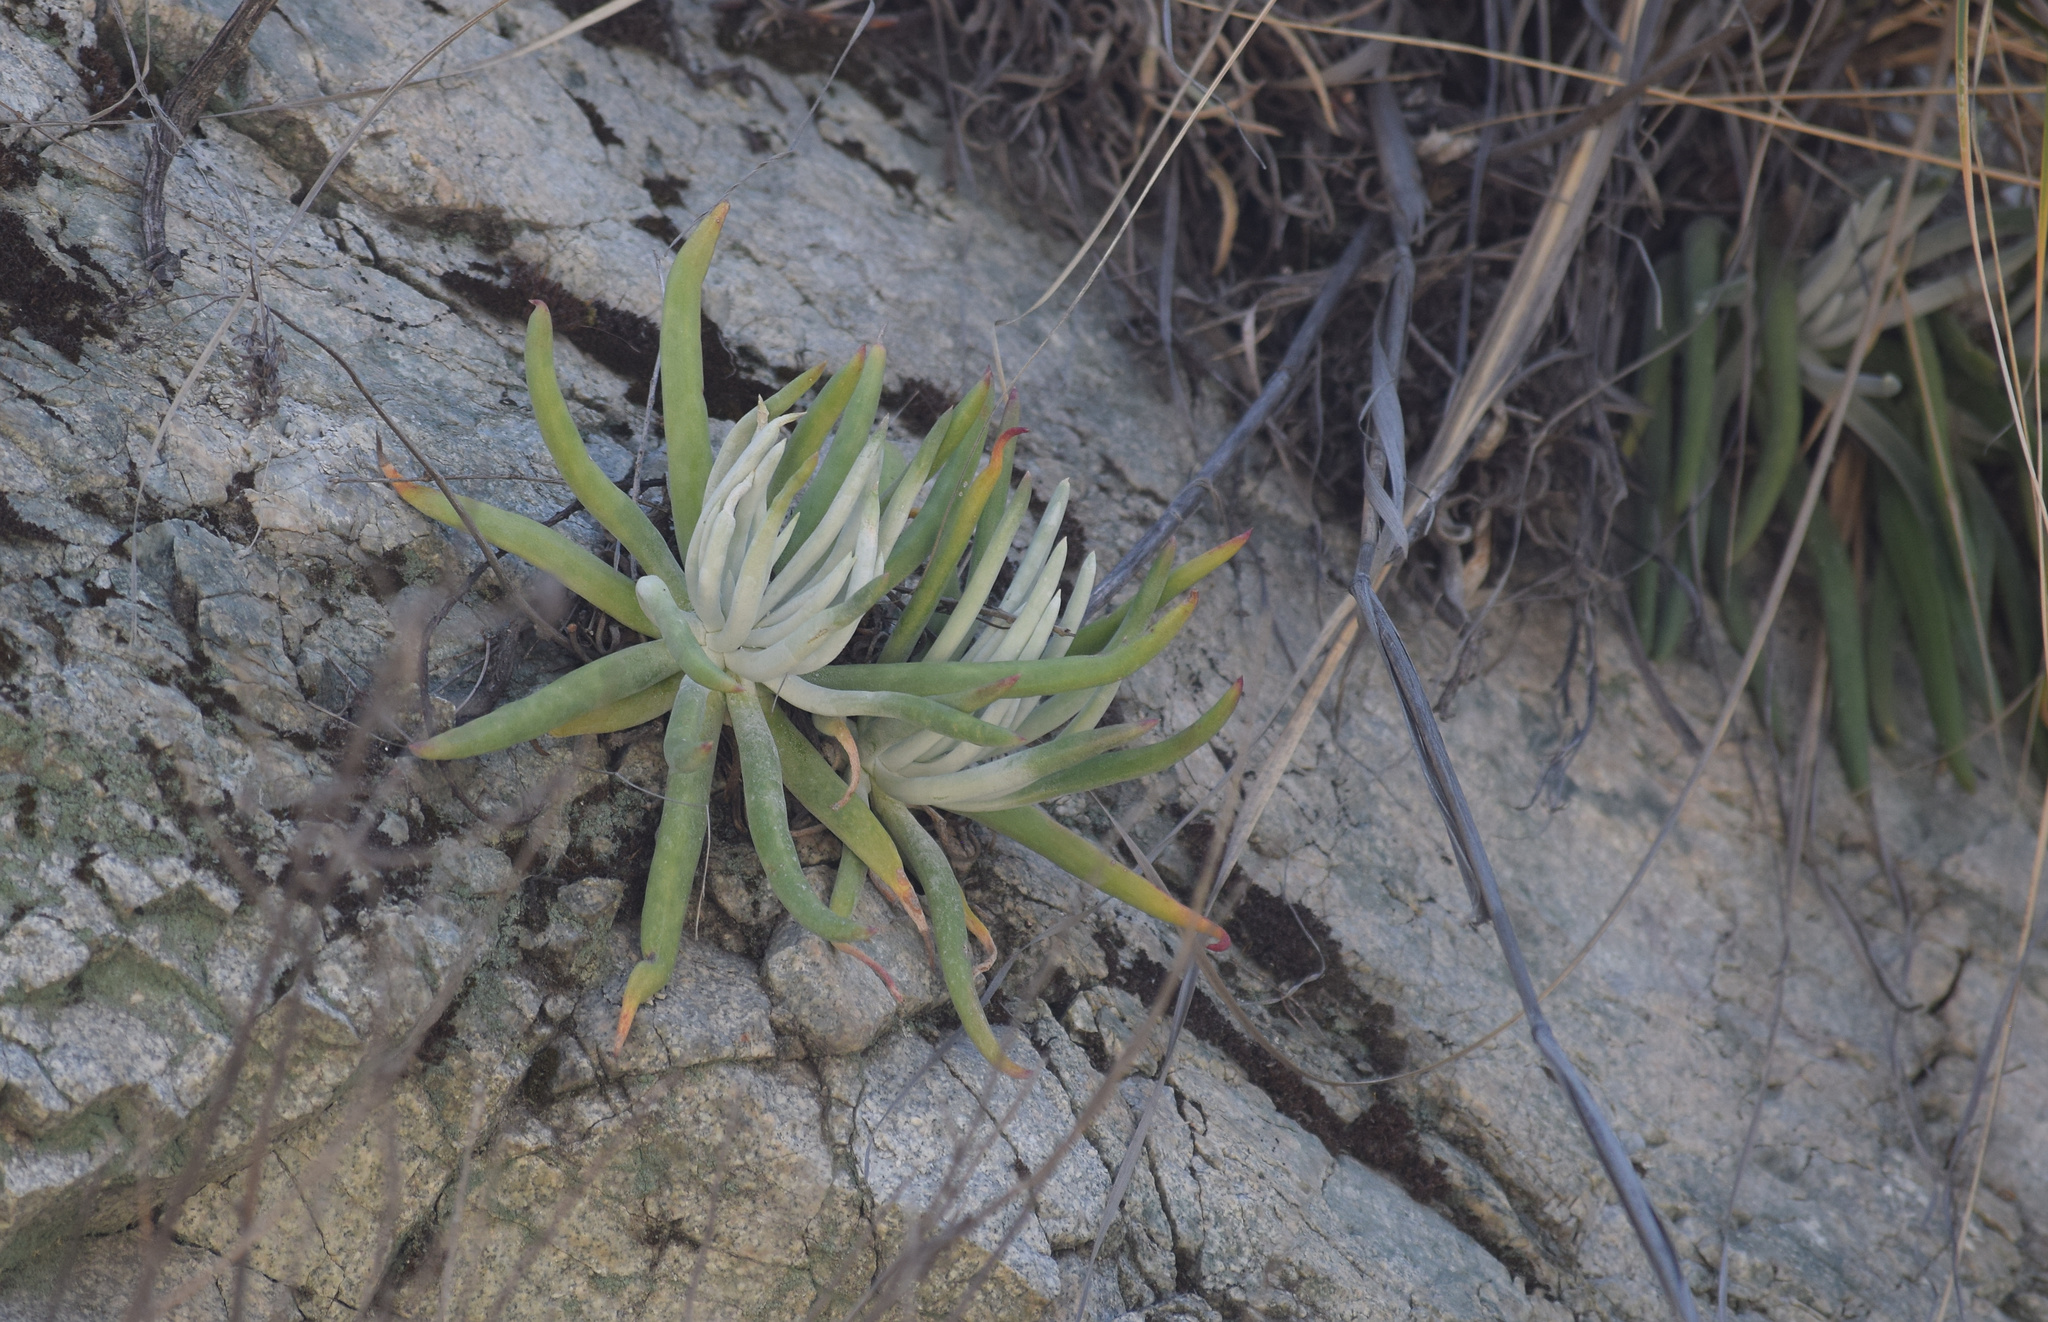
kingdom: Plantae
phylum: Tracheophyta
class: Magnoliopsida
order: Saxifragales
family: Crassulaceae
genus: Dudleya
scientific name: Dudleya densiflora
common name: San gabriel mountains dudleya
